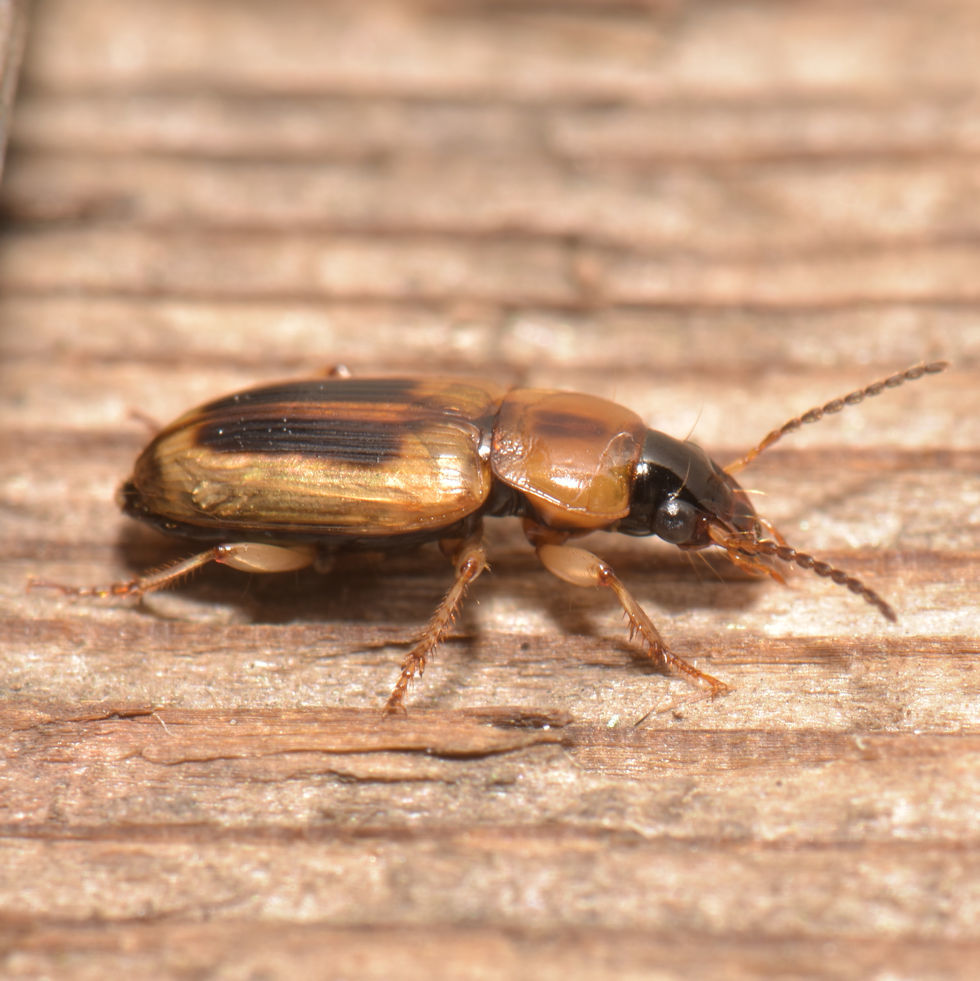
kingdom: Animalia
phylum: Arthropoda
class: Insecta
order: Coleoptera
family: Carabidae
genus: Stenolophus
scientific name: Stenolophus comma
